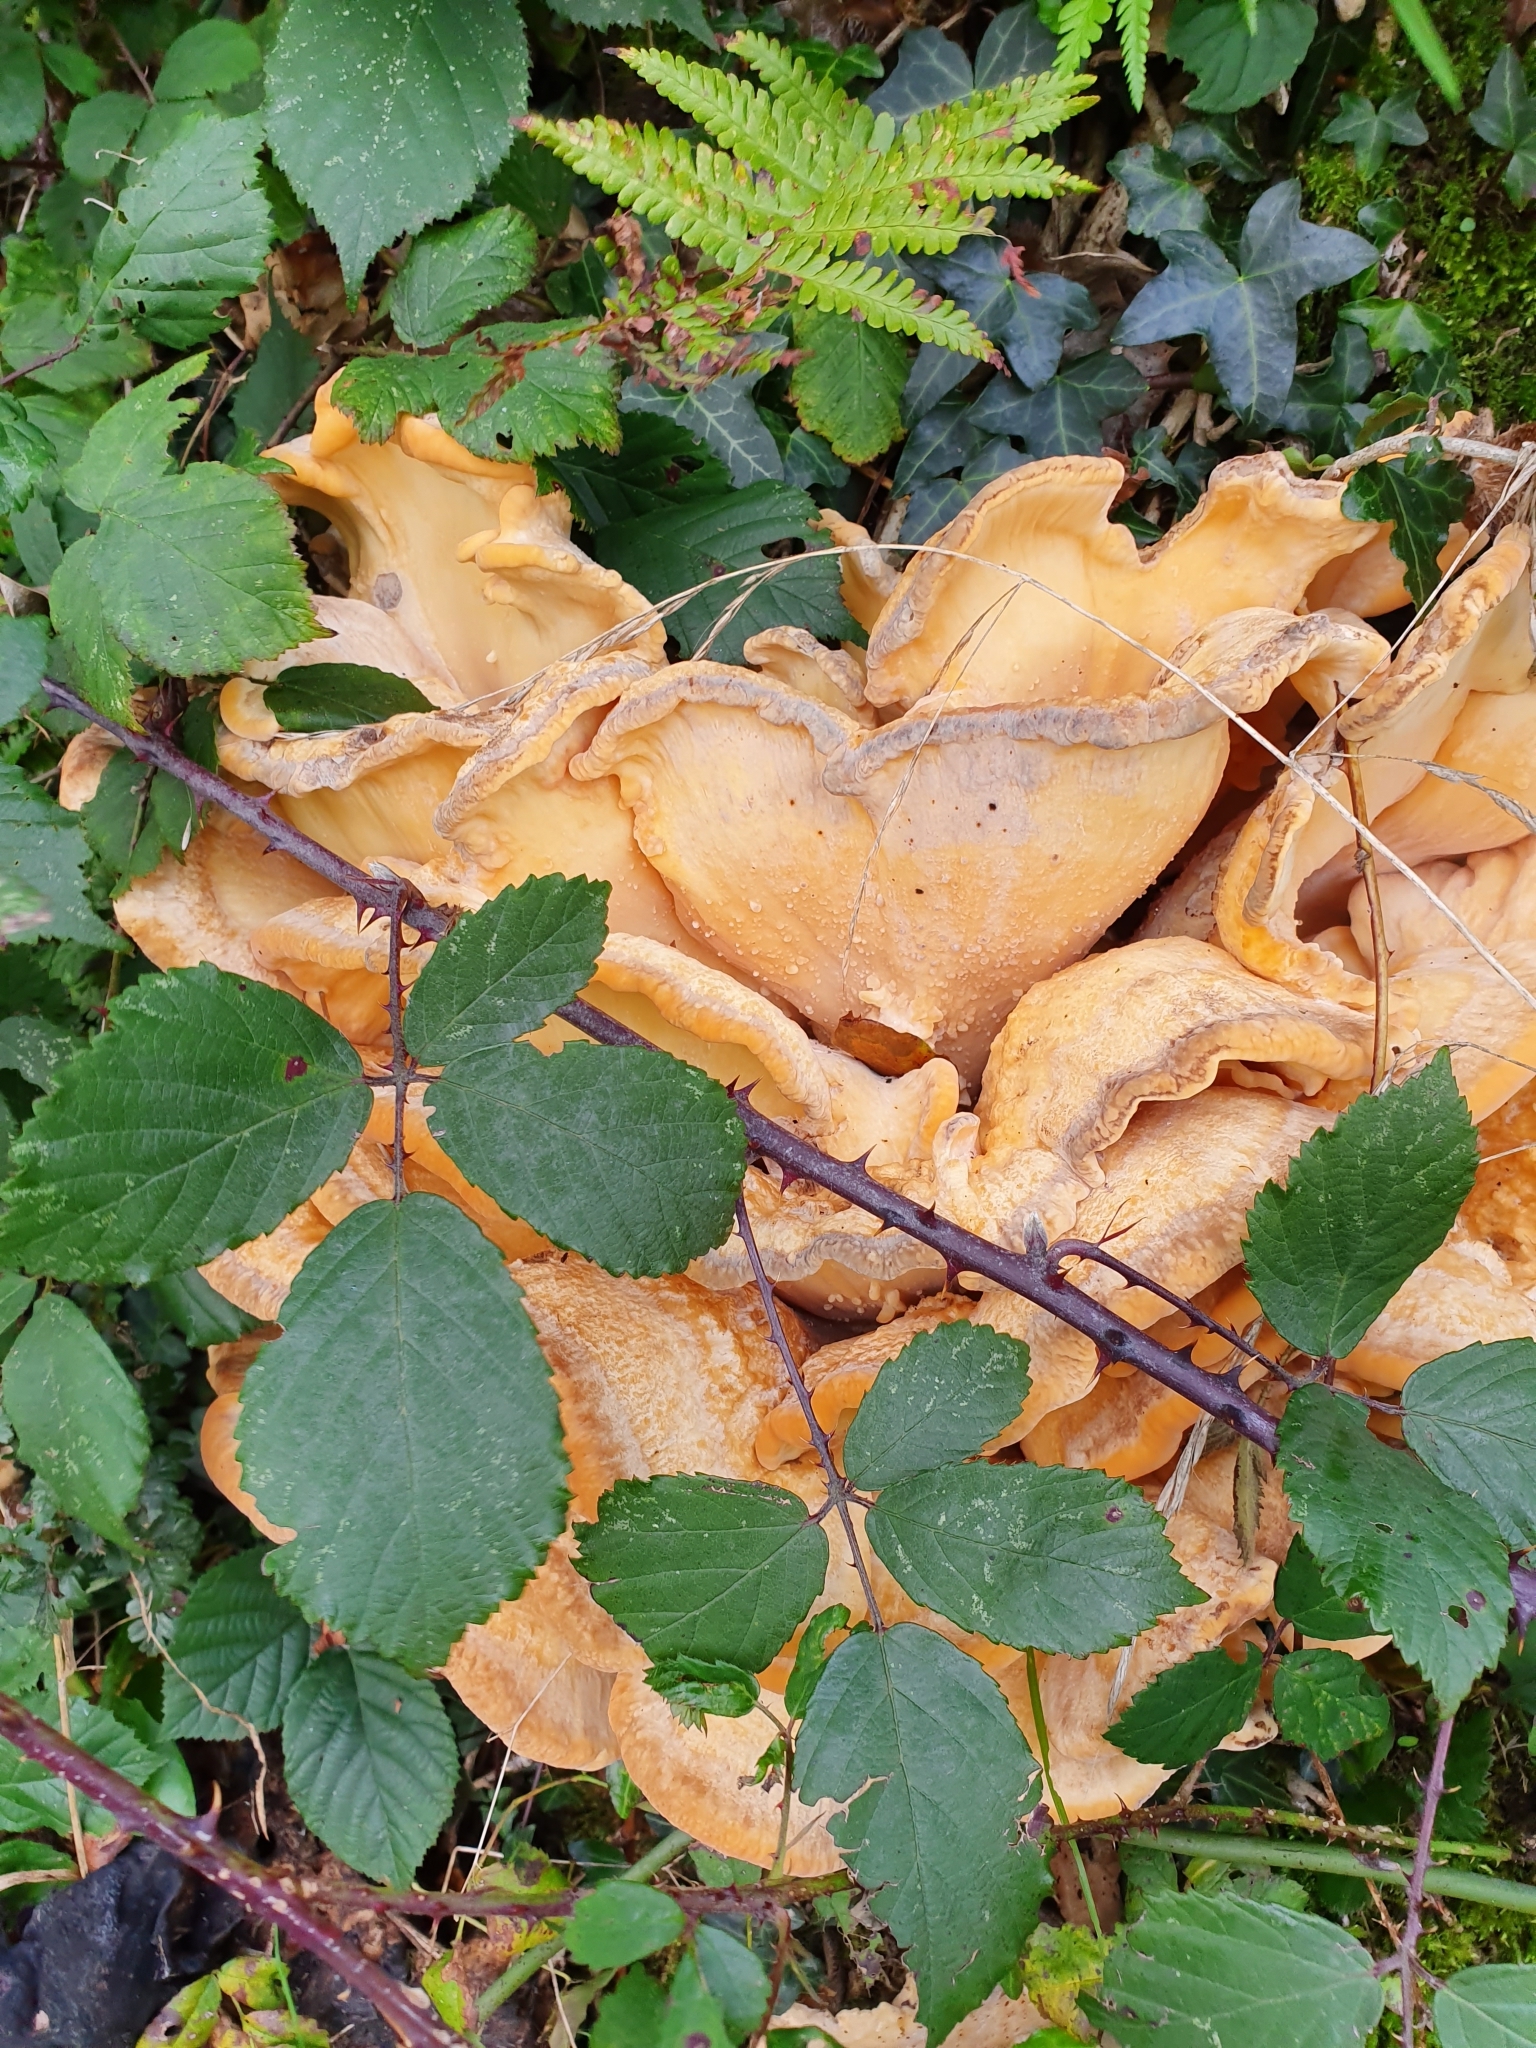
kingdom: Fungi
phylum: Basidiomycota
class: Agaricomycetes
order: Polyporales
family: Meripilaceae
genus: Meripilus
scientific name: Meripilus giganteus
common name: Giant polypore
